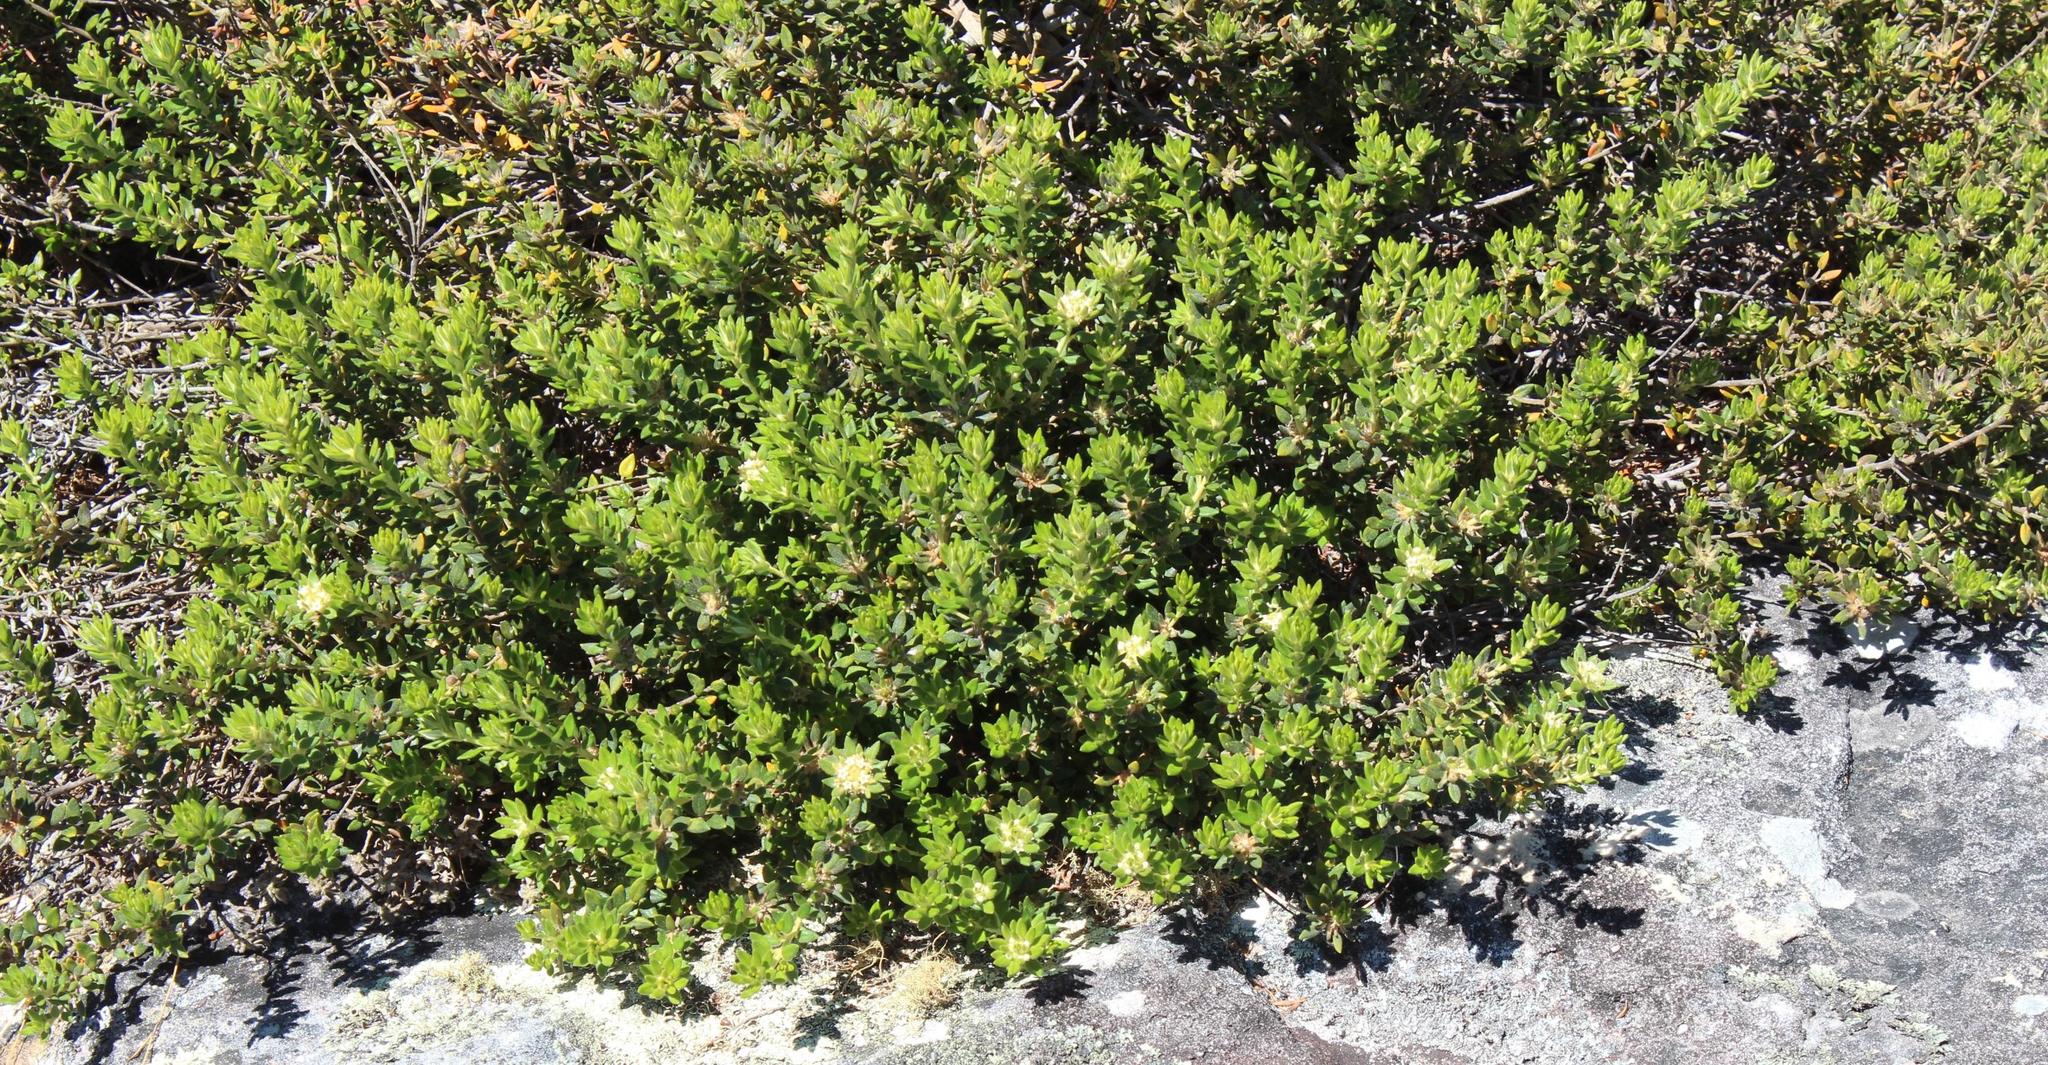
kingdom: Plantae
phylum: Tracheophyta
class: Magnoliopsida
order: Rosales
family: Rhamnaceae
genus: Phylica
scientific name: Phylica dioica
